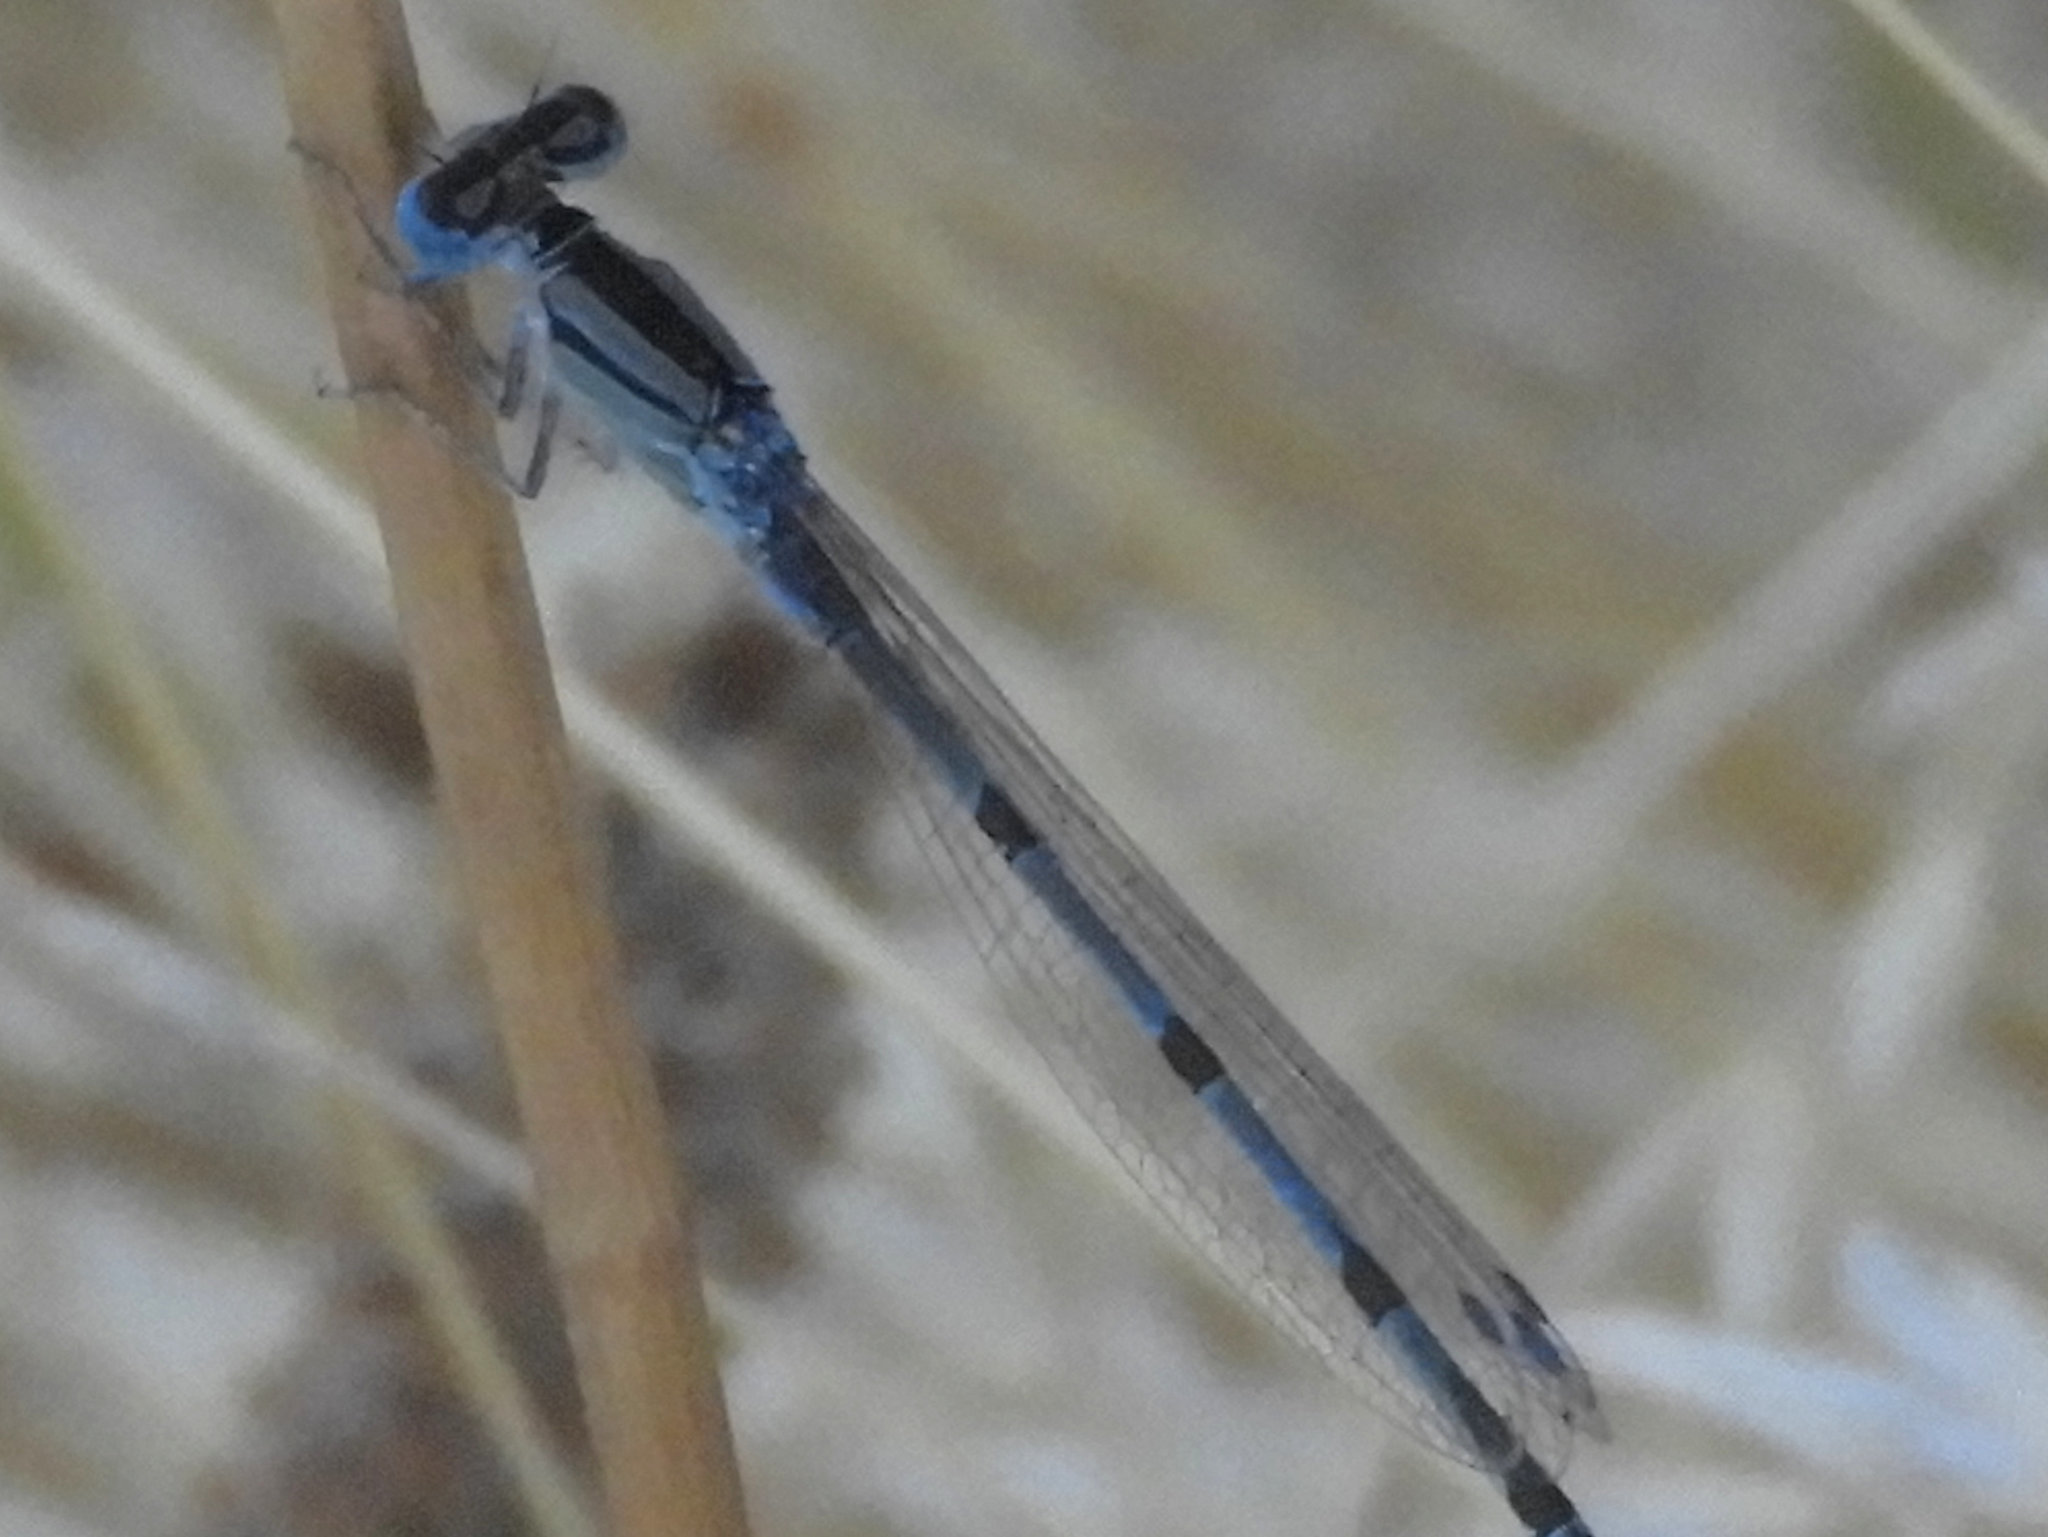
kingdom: Animalia
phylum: Arthropoda
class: Insecta
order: Odonata
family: Coenagrionidae
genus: Enallagma
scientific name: Enallagma civile
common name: Damselfly
